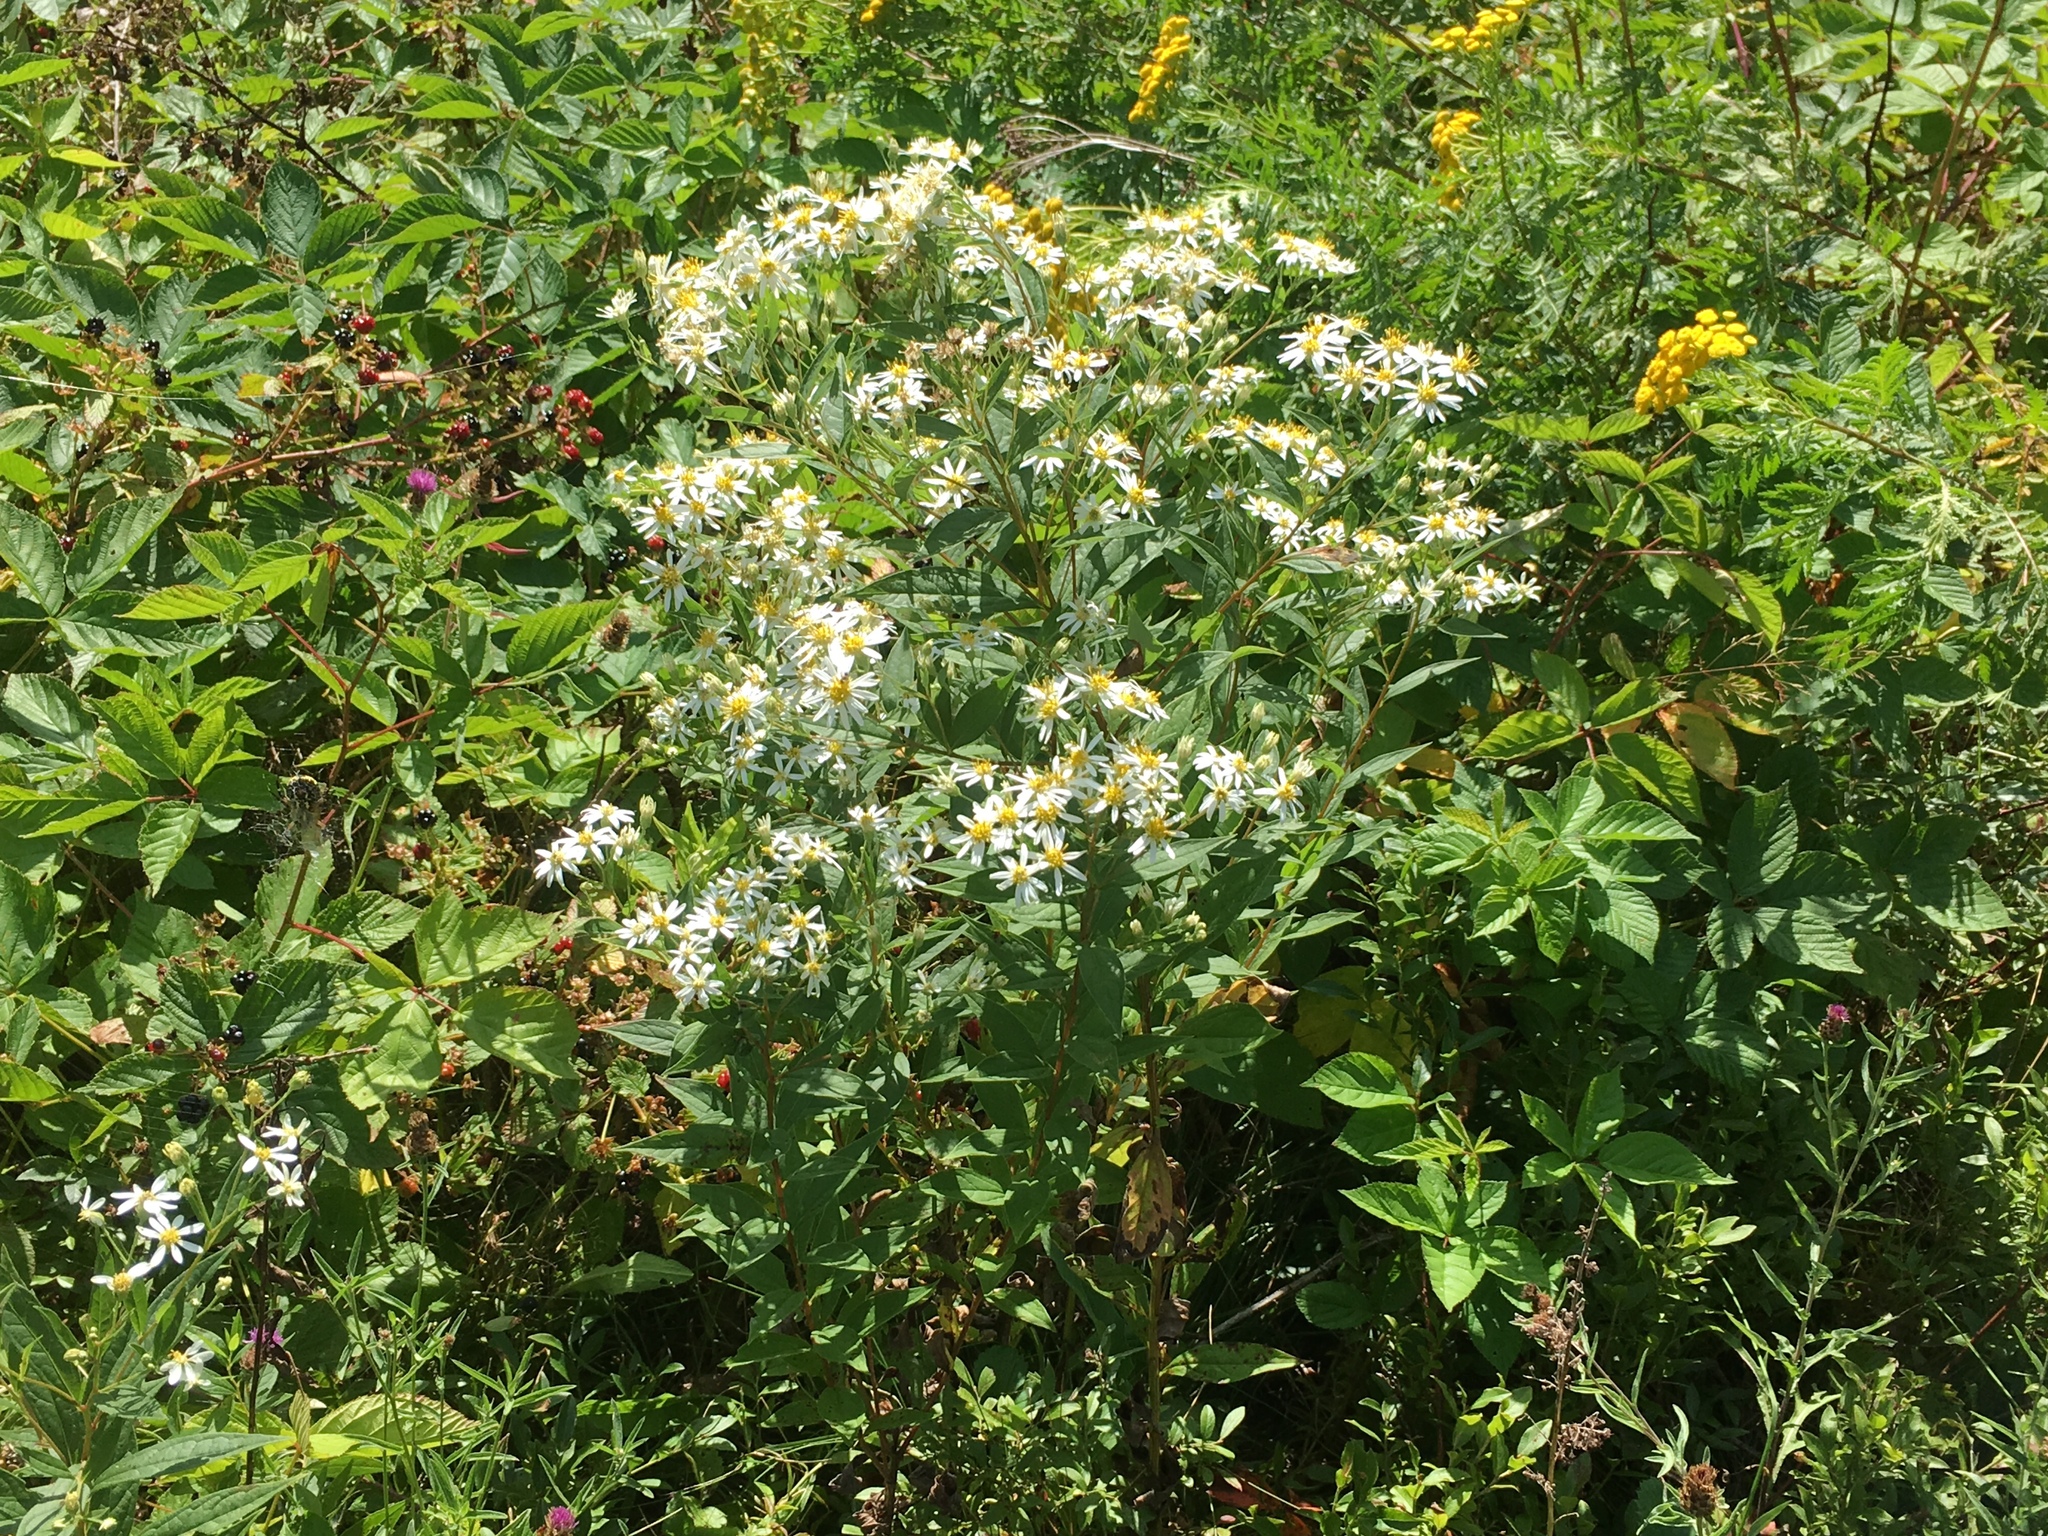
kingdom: Plantae
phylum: Tracheophyta
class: Magnoliopsida
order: Asterales
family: Asteraceae
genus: Doellingeria
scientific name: Doellingeria umbellata
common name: Flat-top white aster
